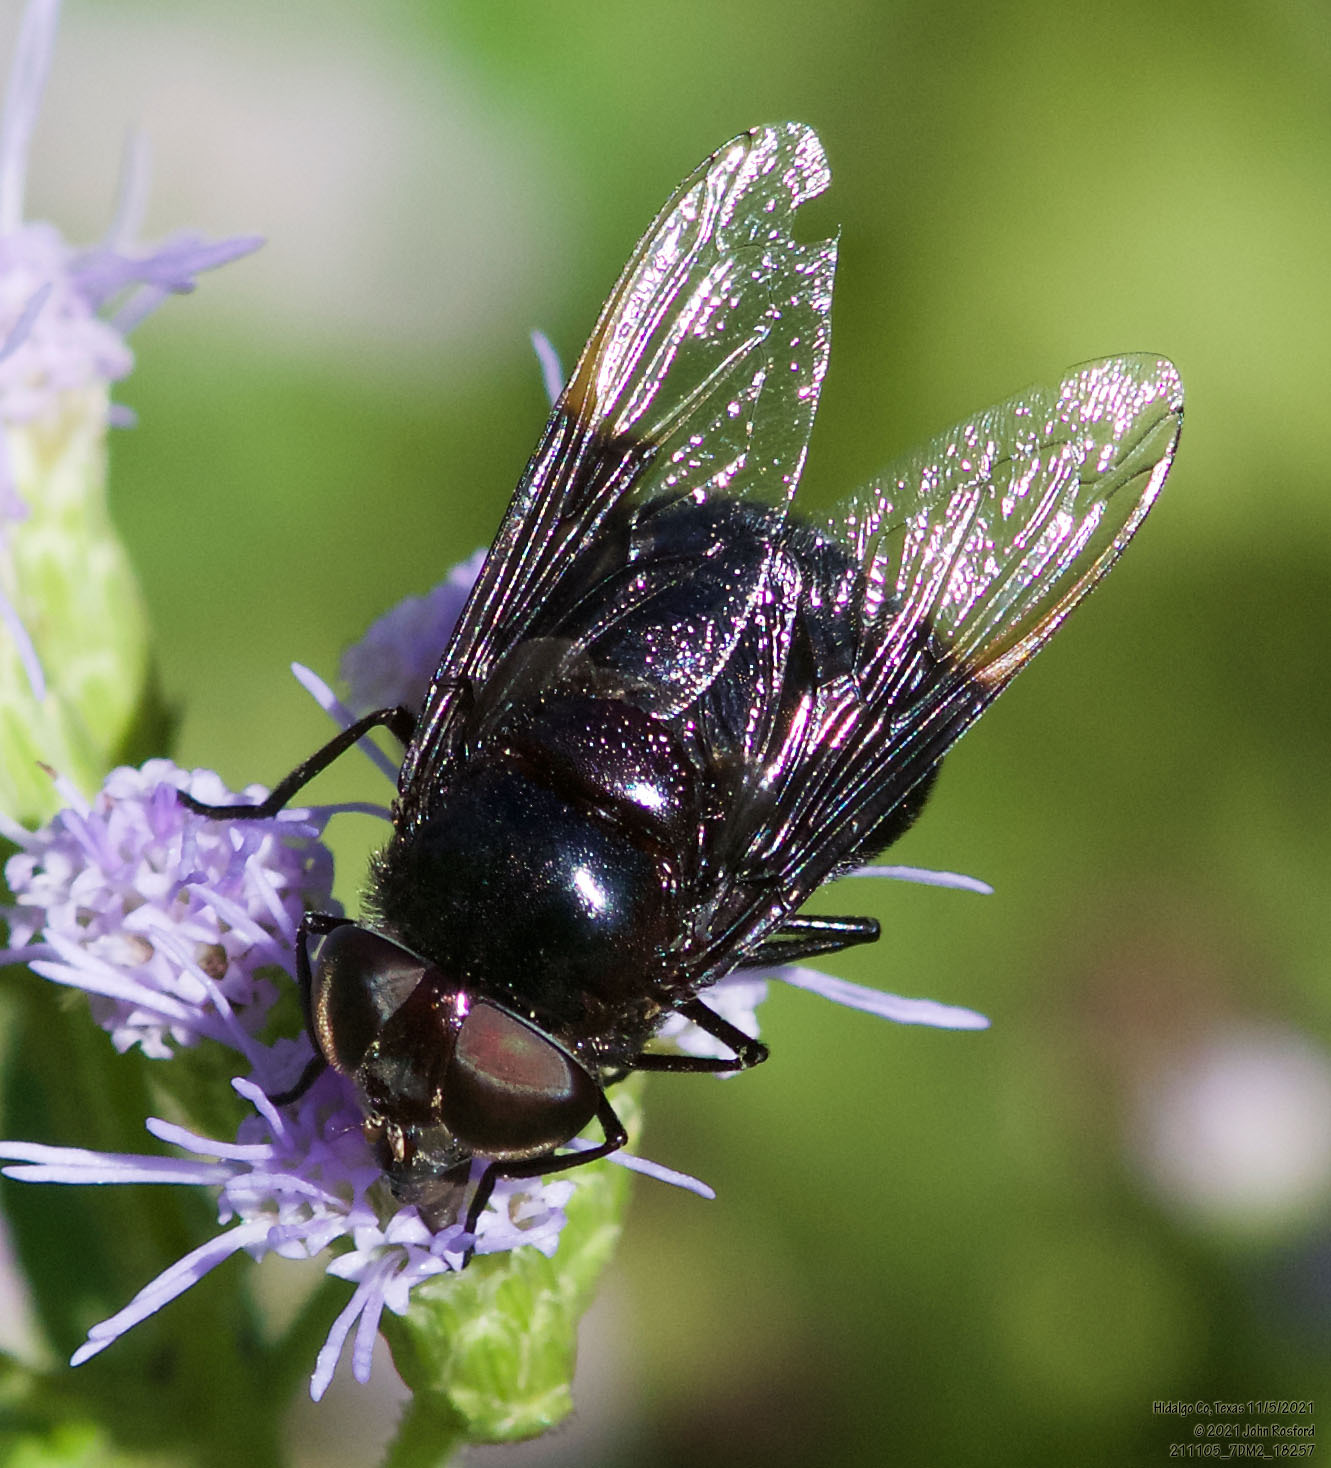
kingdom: Animalia
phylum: Arthropoda
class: Insecta
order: Diptera
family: Syrphidae
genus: Copestylum
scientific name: Copestylum
